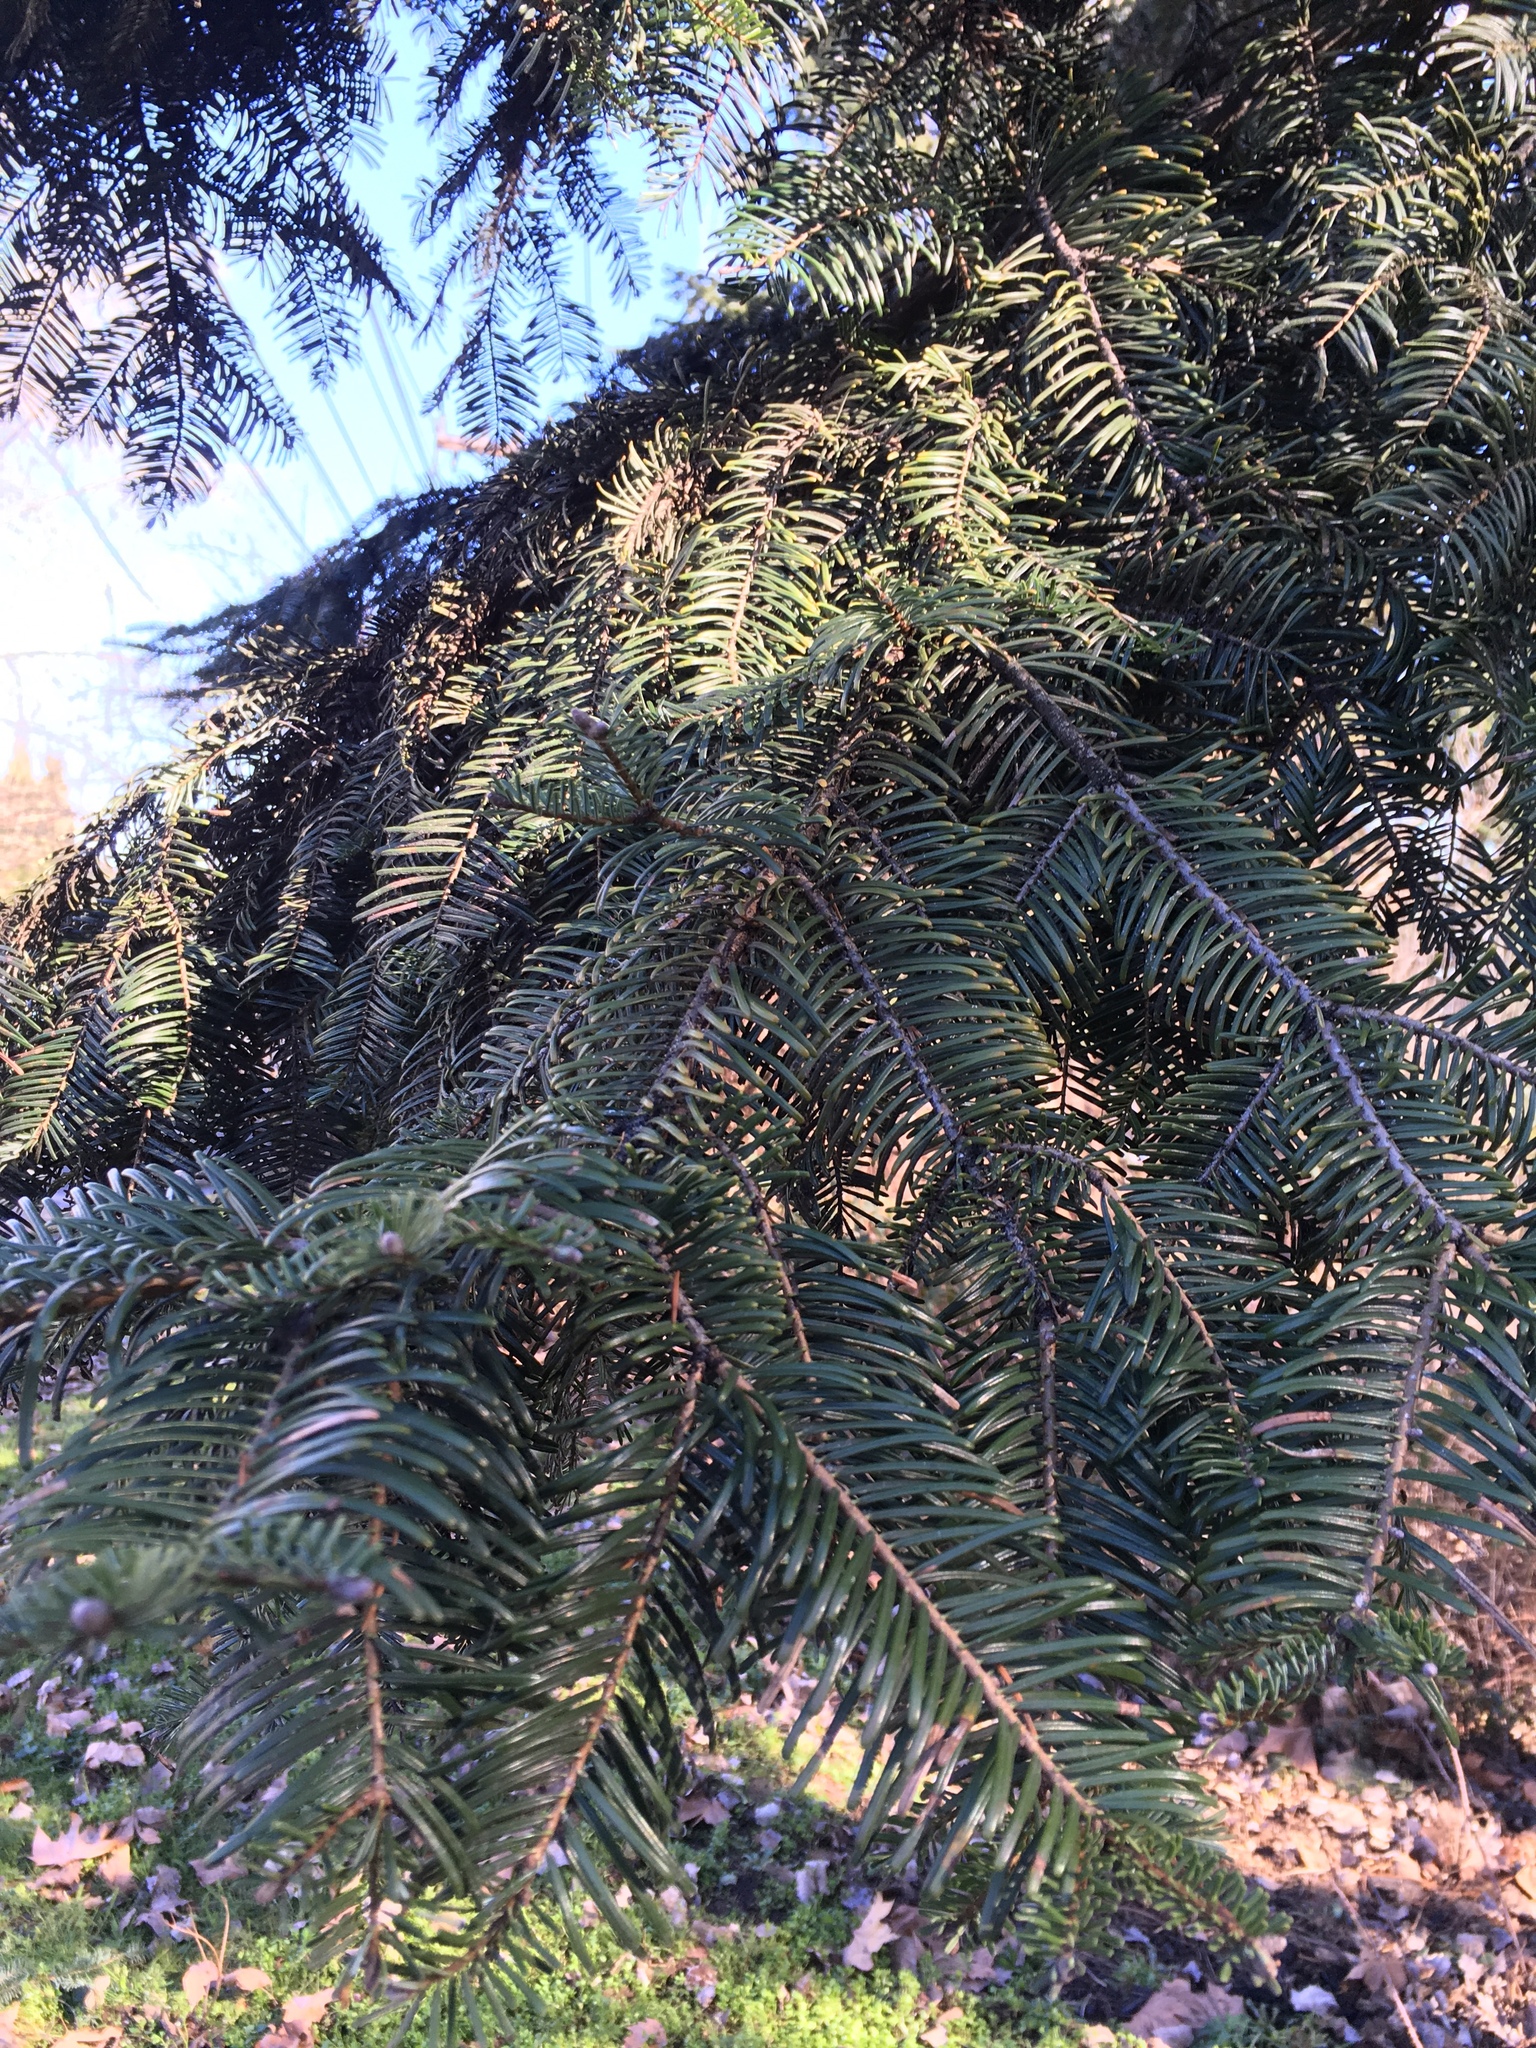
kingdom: Plantae
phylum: Tracheophyta
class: Pinopsida
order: Pinales
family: Pinaceae
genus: Abies
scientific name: Abies grandis
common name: Giant fir
